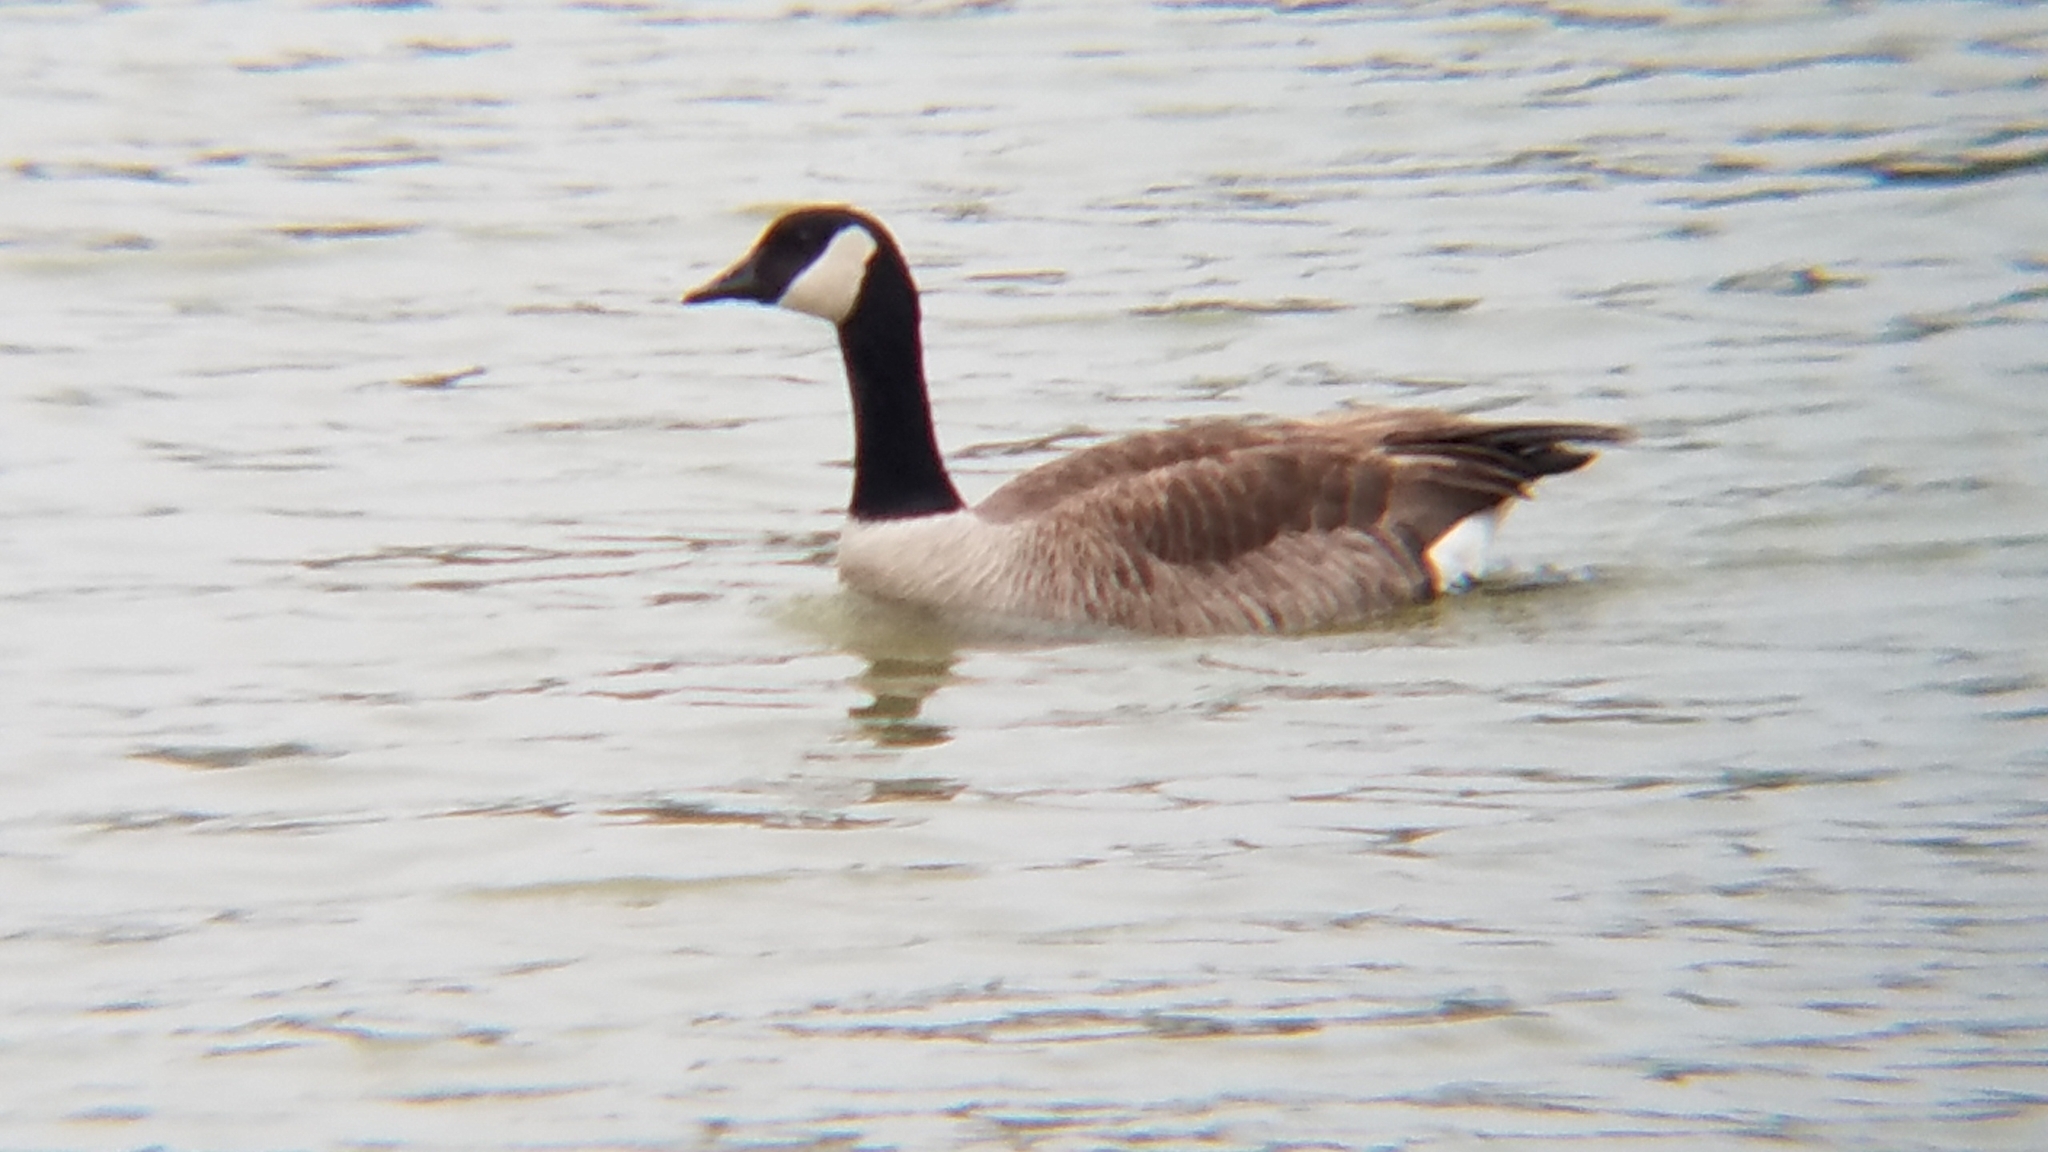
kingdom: Animalia
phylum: Chordata
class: Aves
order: Anseriformes
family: Anatidae
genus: Branta
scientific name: Branta canadensis
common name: Canada goose
